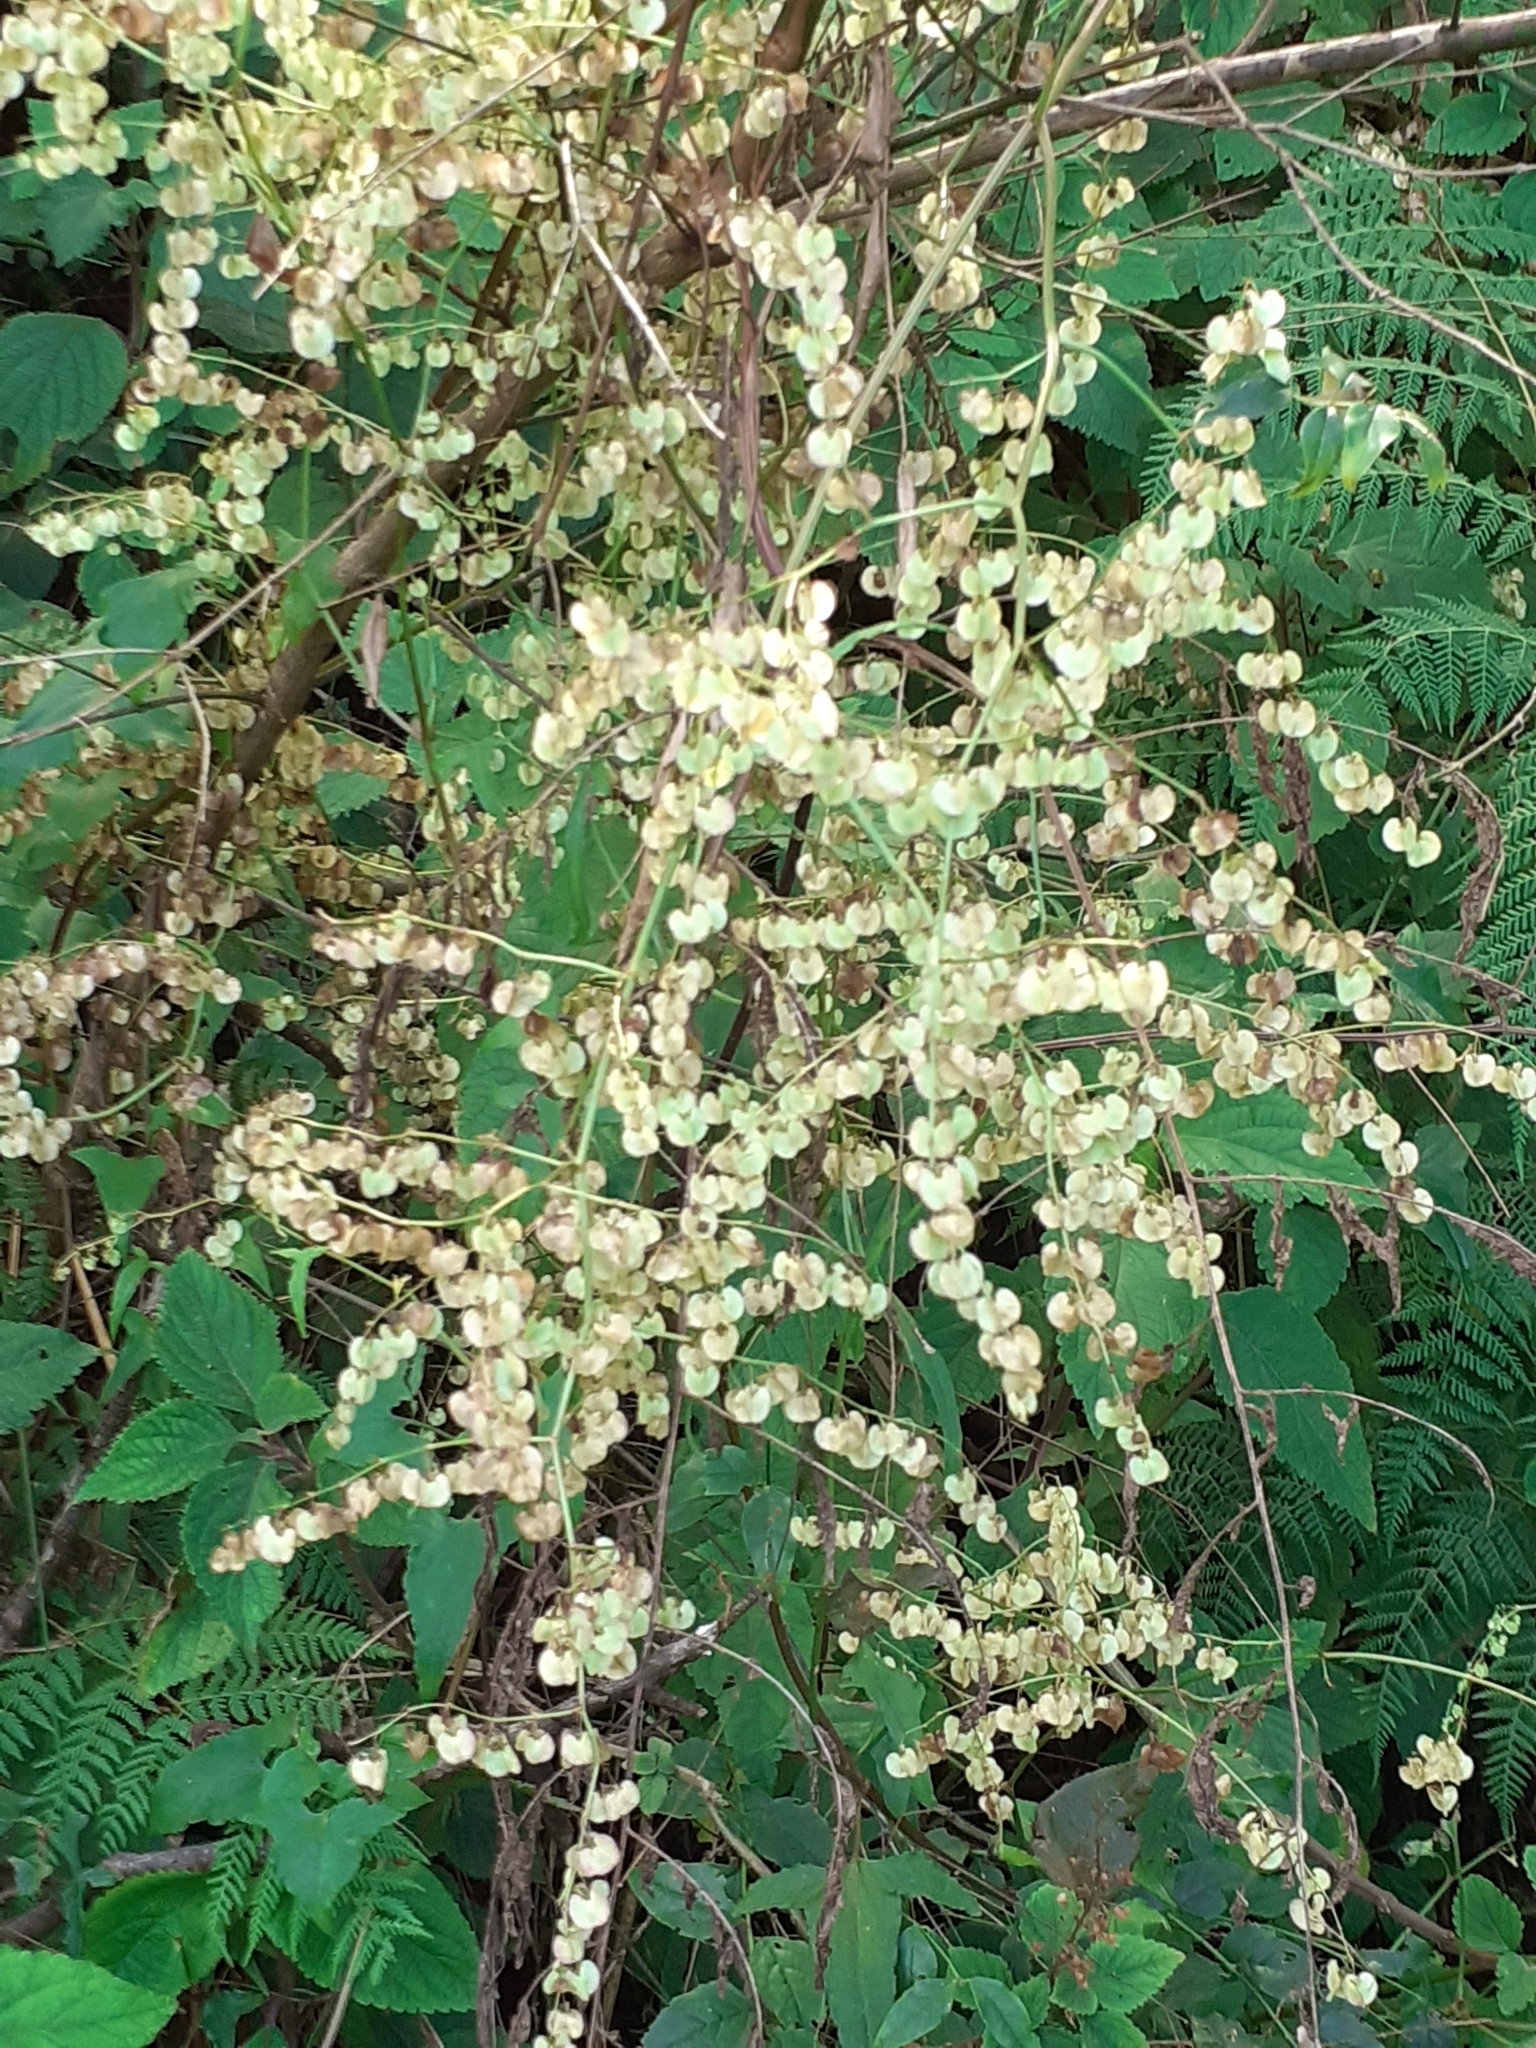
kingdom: Plantae
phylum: Tracheophyta
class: Magnoliopsida
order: Caryophyllales
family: Polygonaceae
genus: Rumex
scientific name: Rumex sagittatus
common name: Climbing dock
